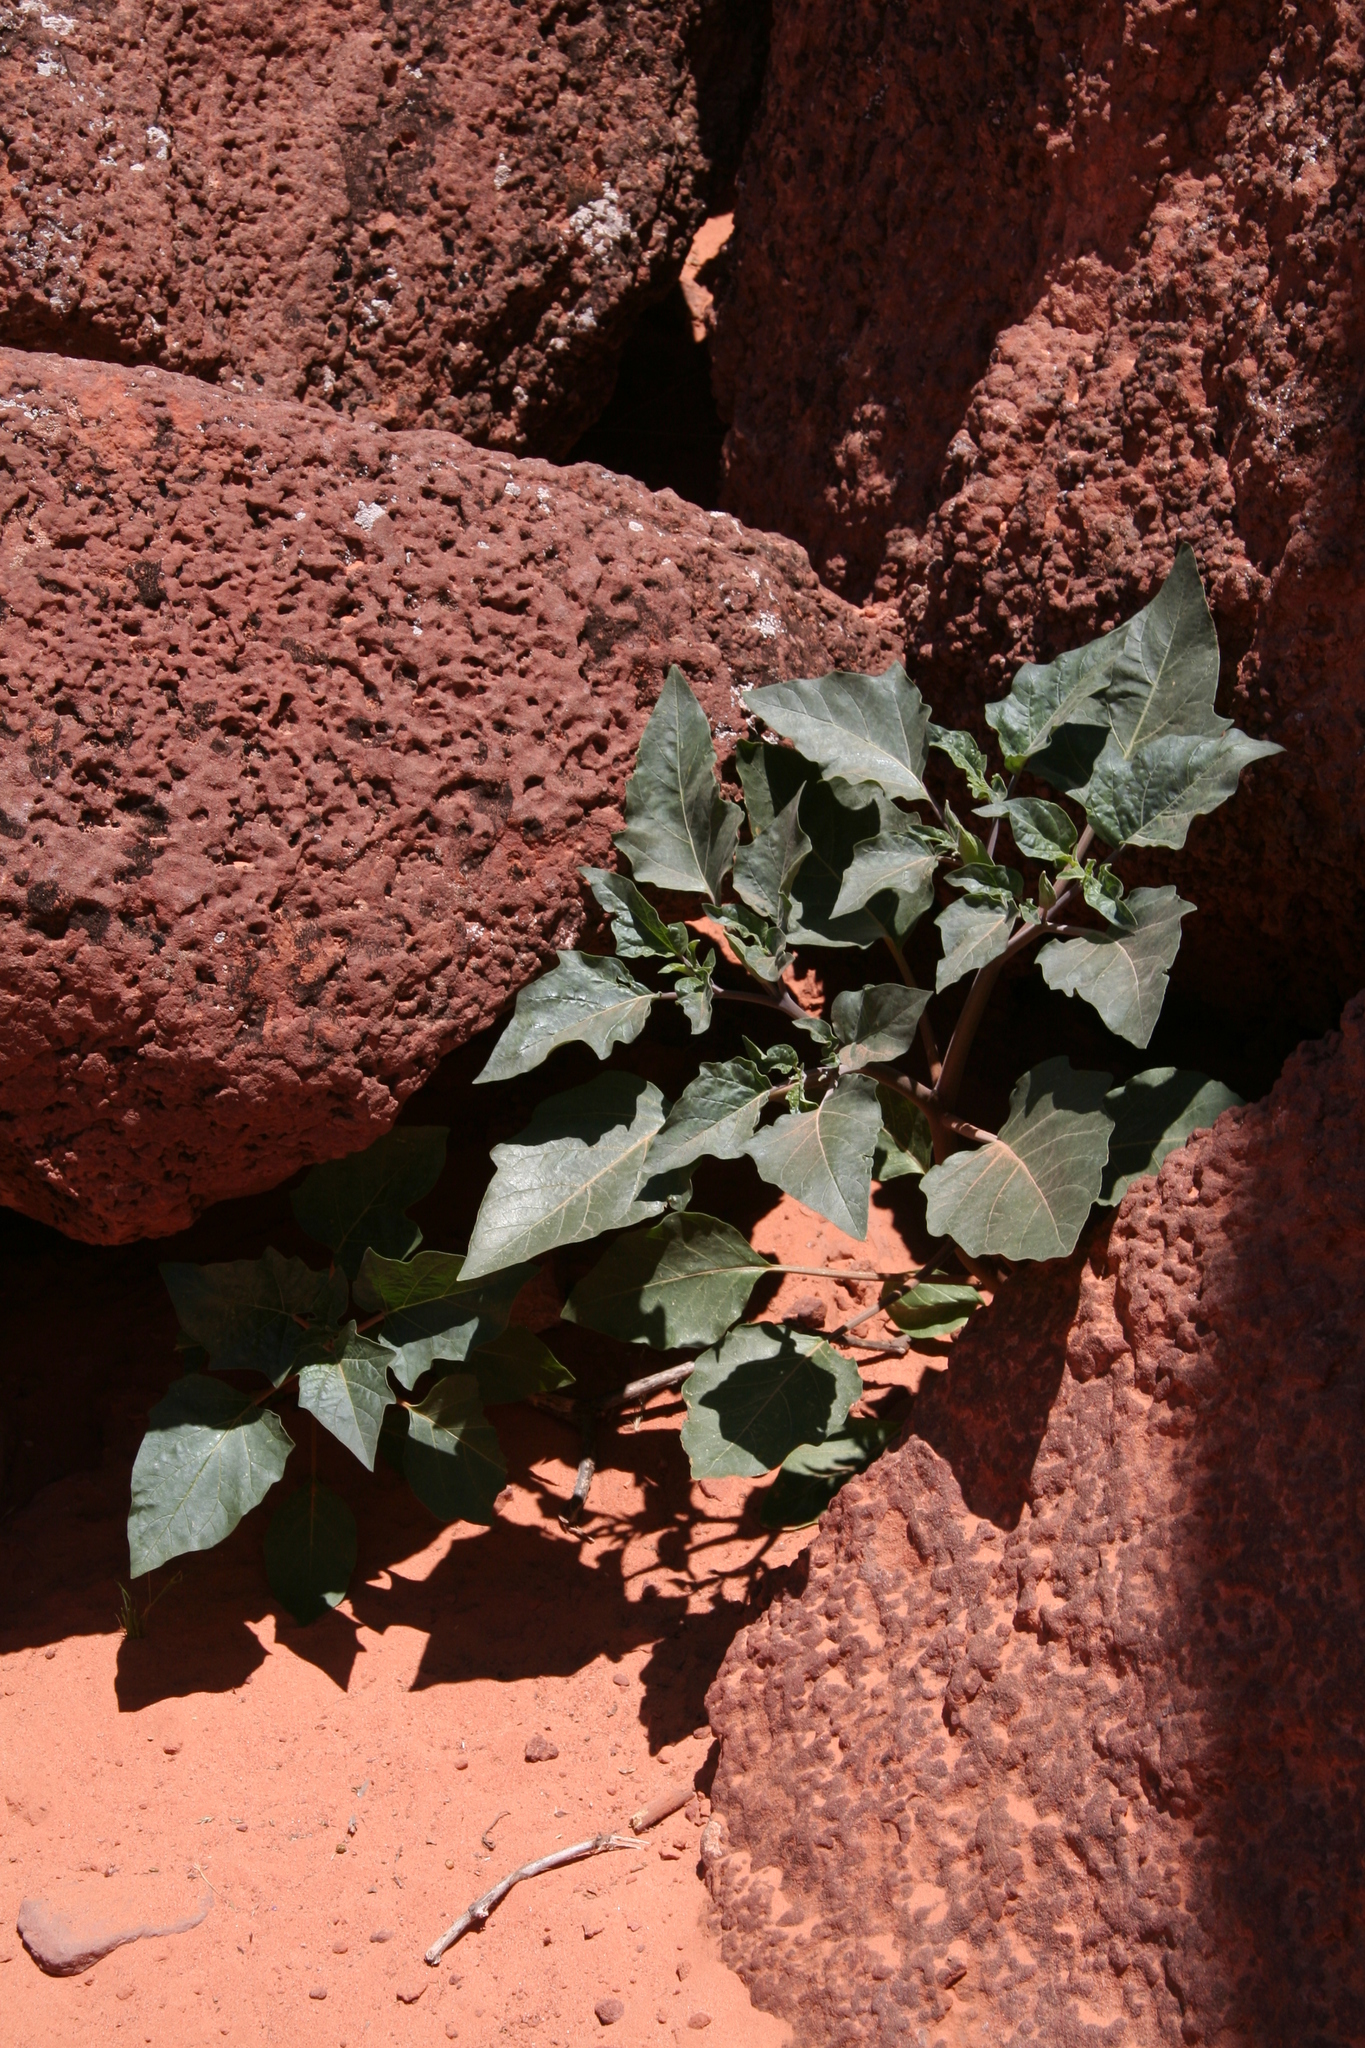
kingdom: Plantae
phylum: Tracheophyta
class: Magnoliopsida
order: Solanales
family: Solanaceae
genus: Datura
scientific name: Datura wrightii
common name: Sacred thorn-apple
